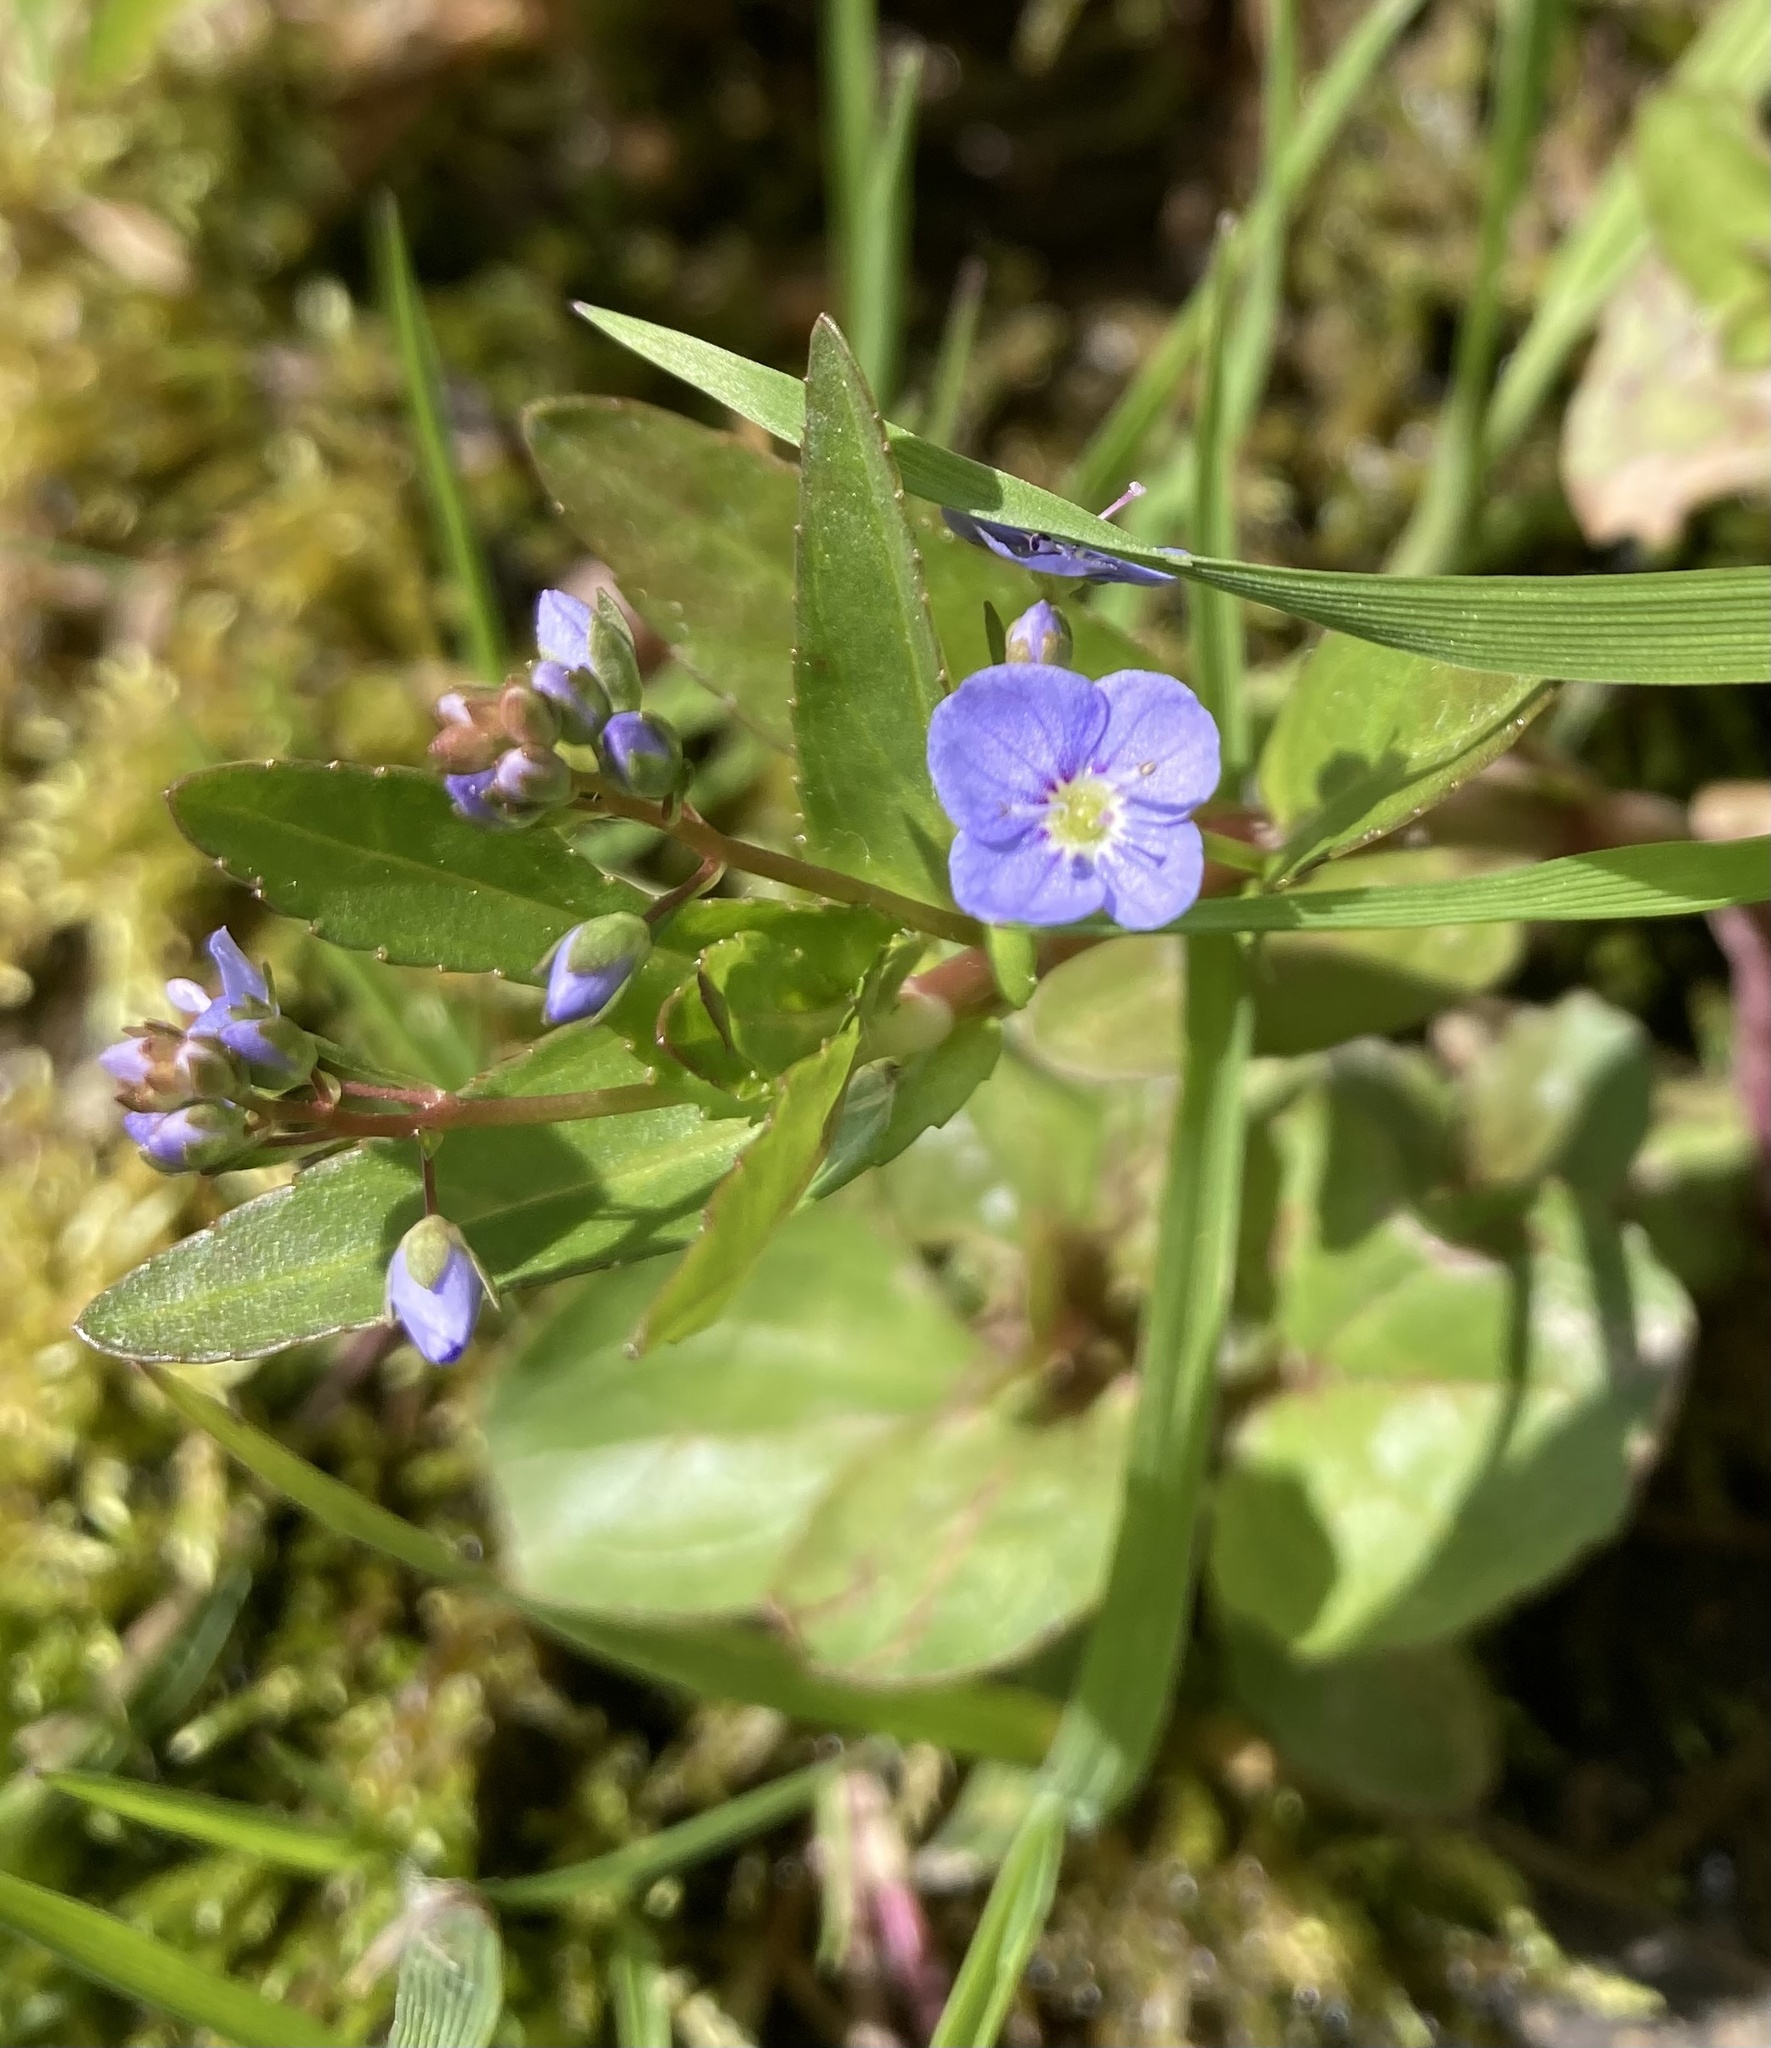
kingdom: Plantae
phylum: Tracheophyta
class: Magnoliopsida
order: Lamiales
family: Plantaginaceae
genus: Veronica
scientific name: Veronica americana
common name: American brooklime
